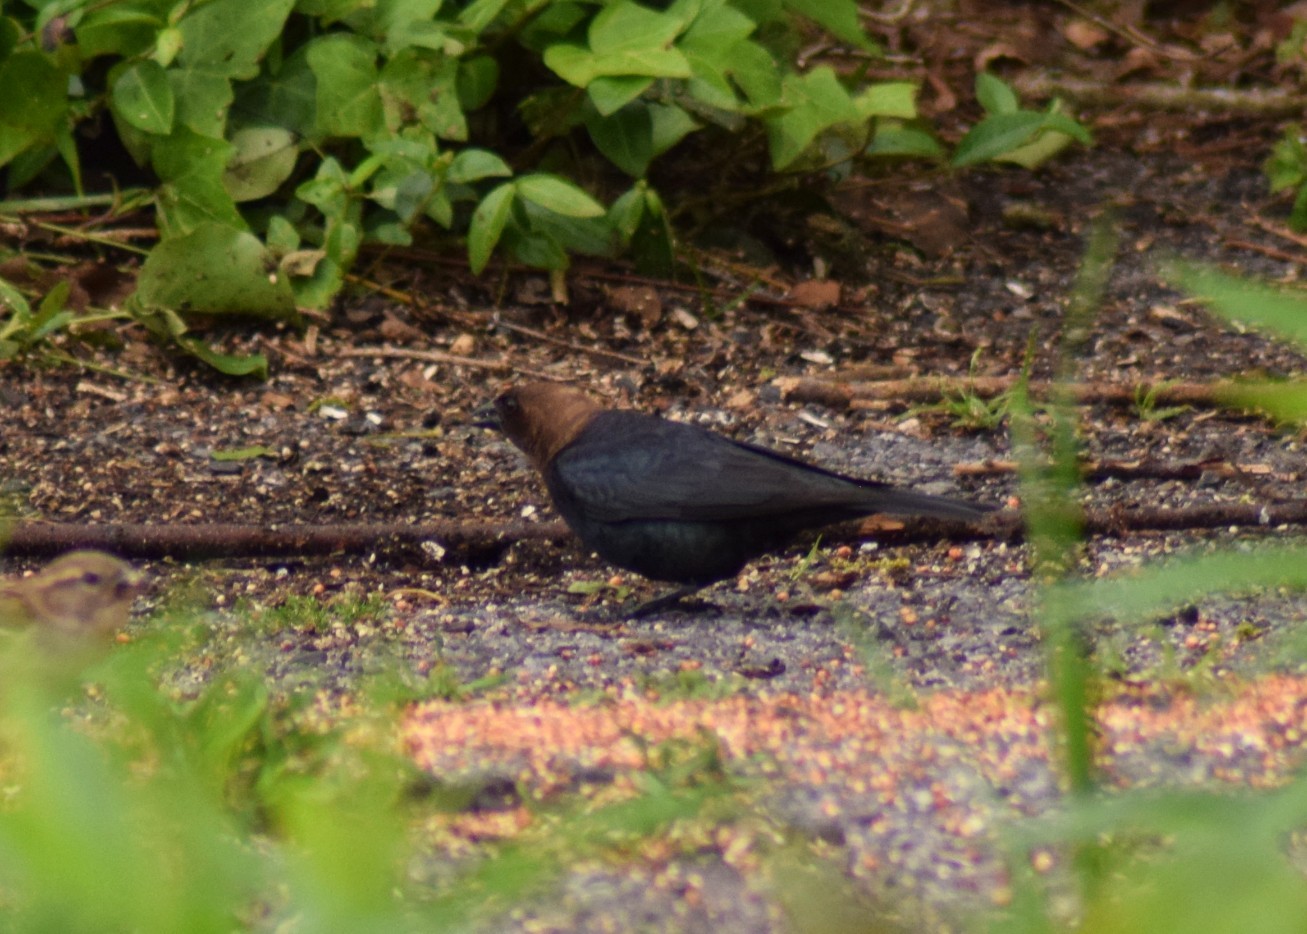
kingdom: Animalia
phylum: Chordata
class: Aves
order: Passeriformes
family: Icteridae
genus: Molothrus
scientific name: Molothrus ater
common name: Brown-headed cowbird
